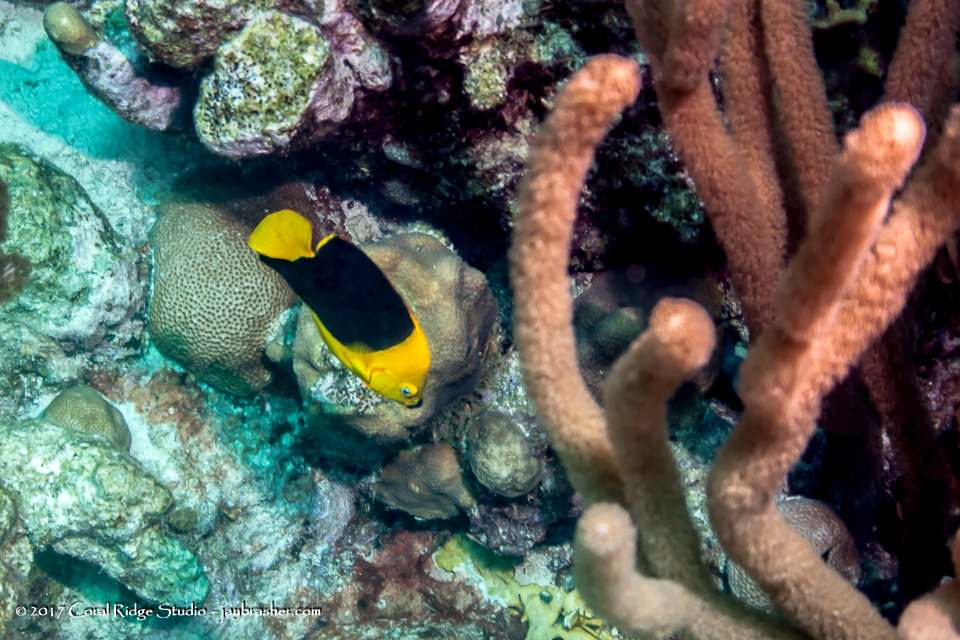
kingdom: Animalia
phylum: Chordata
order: Perciformes
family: Pomacanthidae
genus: Holacanthus
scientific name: Holacanthus tricolor
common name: Rock beauty
